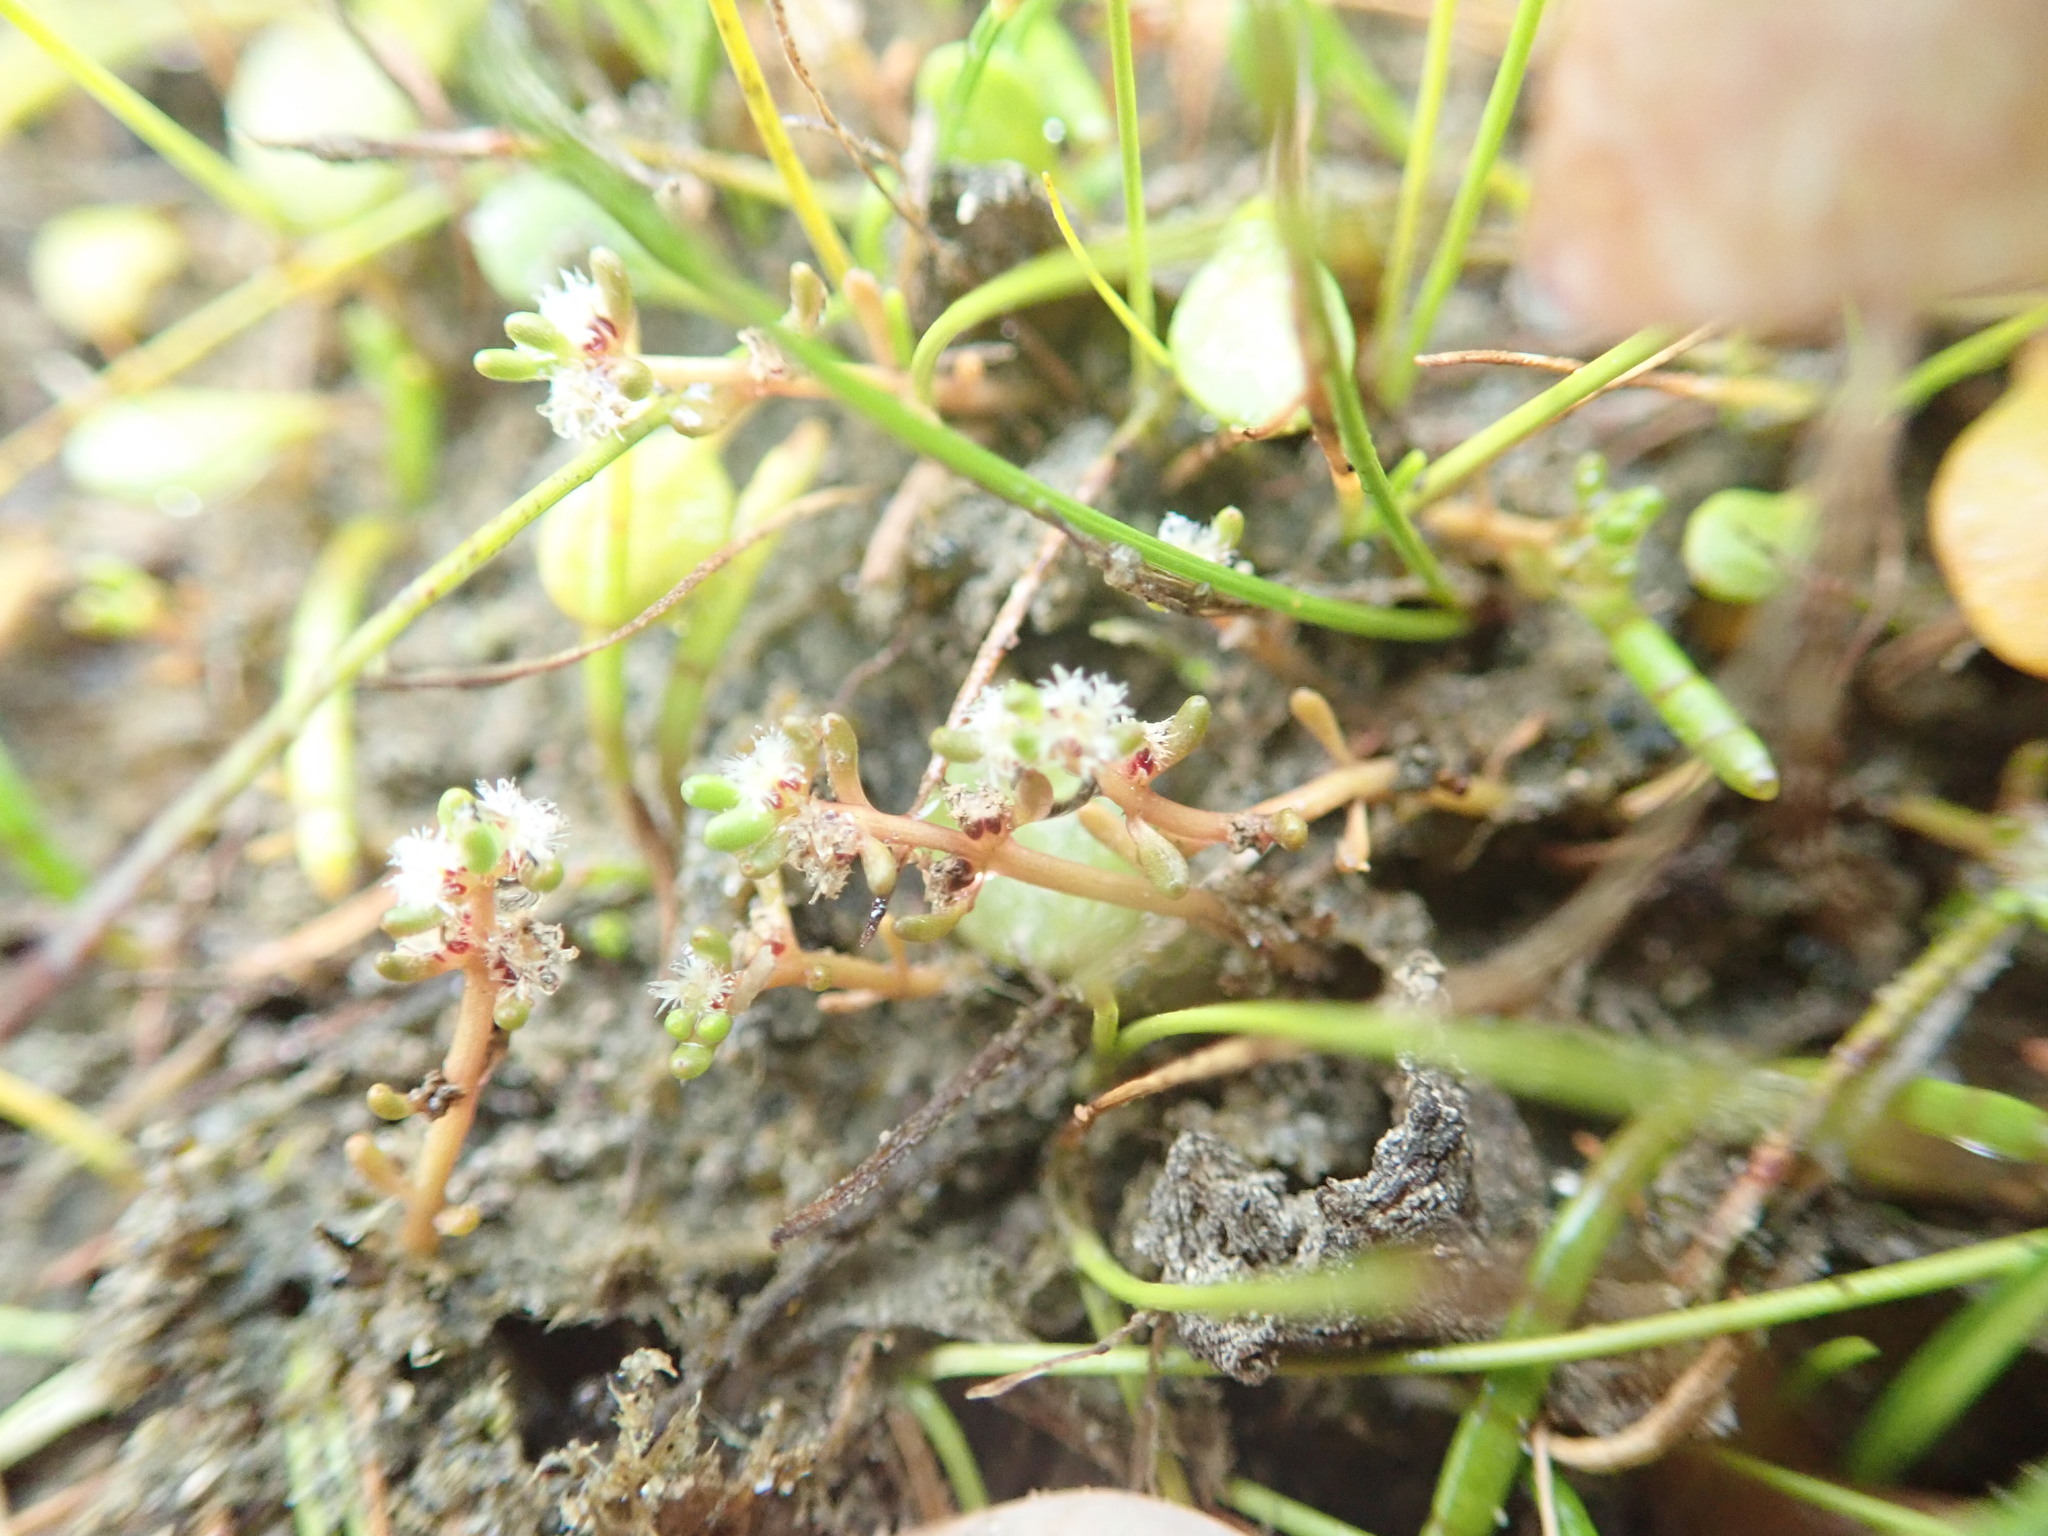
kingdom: Plantae
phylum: Tracheophyta
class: Magnoliopsida
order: Saxifragales
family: Haloragaceae
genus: Myriophyllum
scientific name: Myriophyllum votschii
